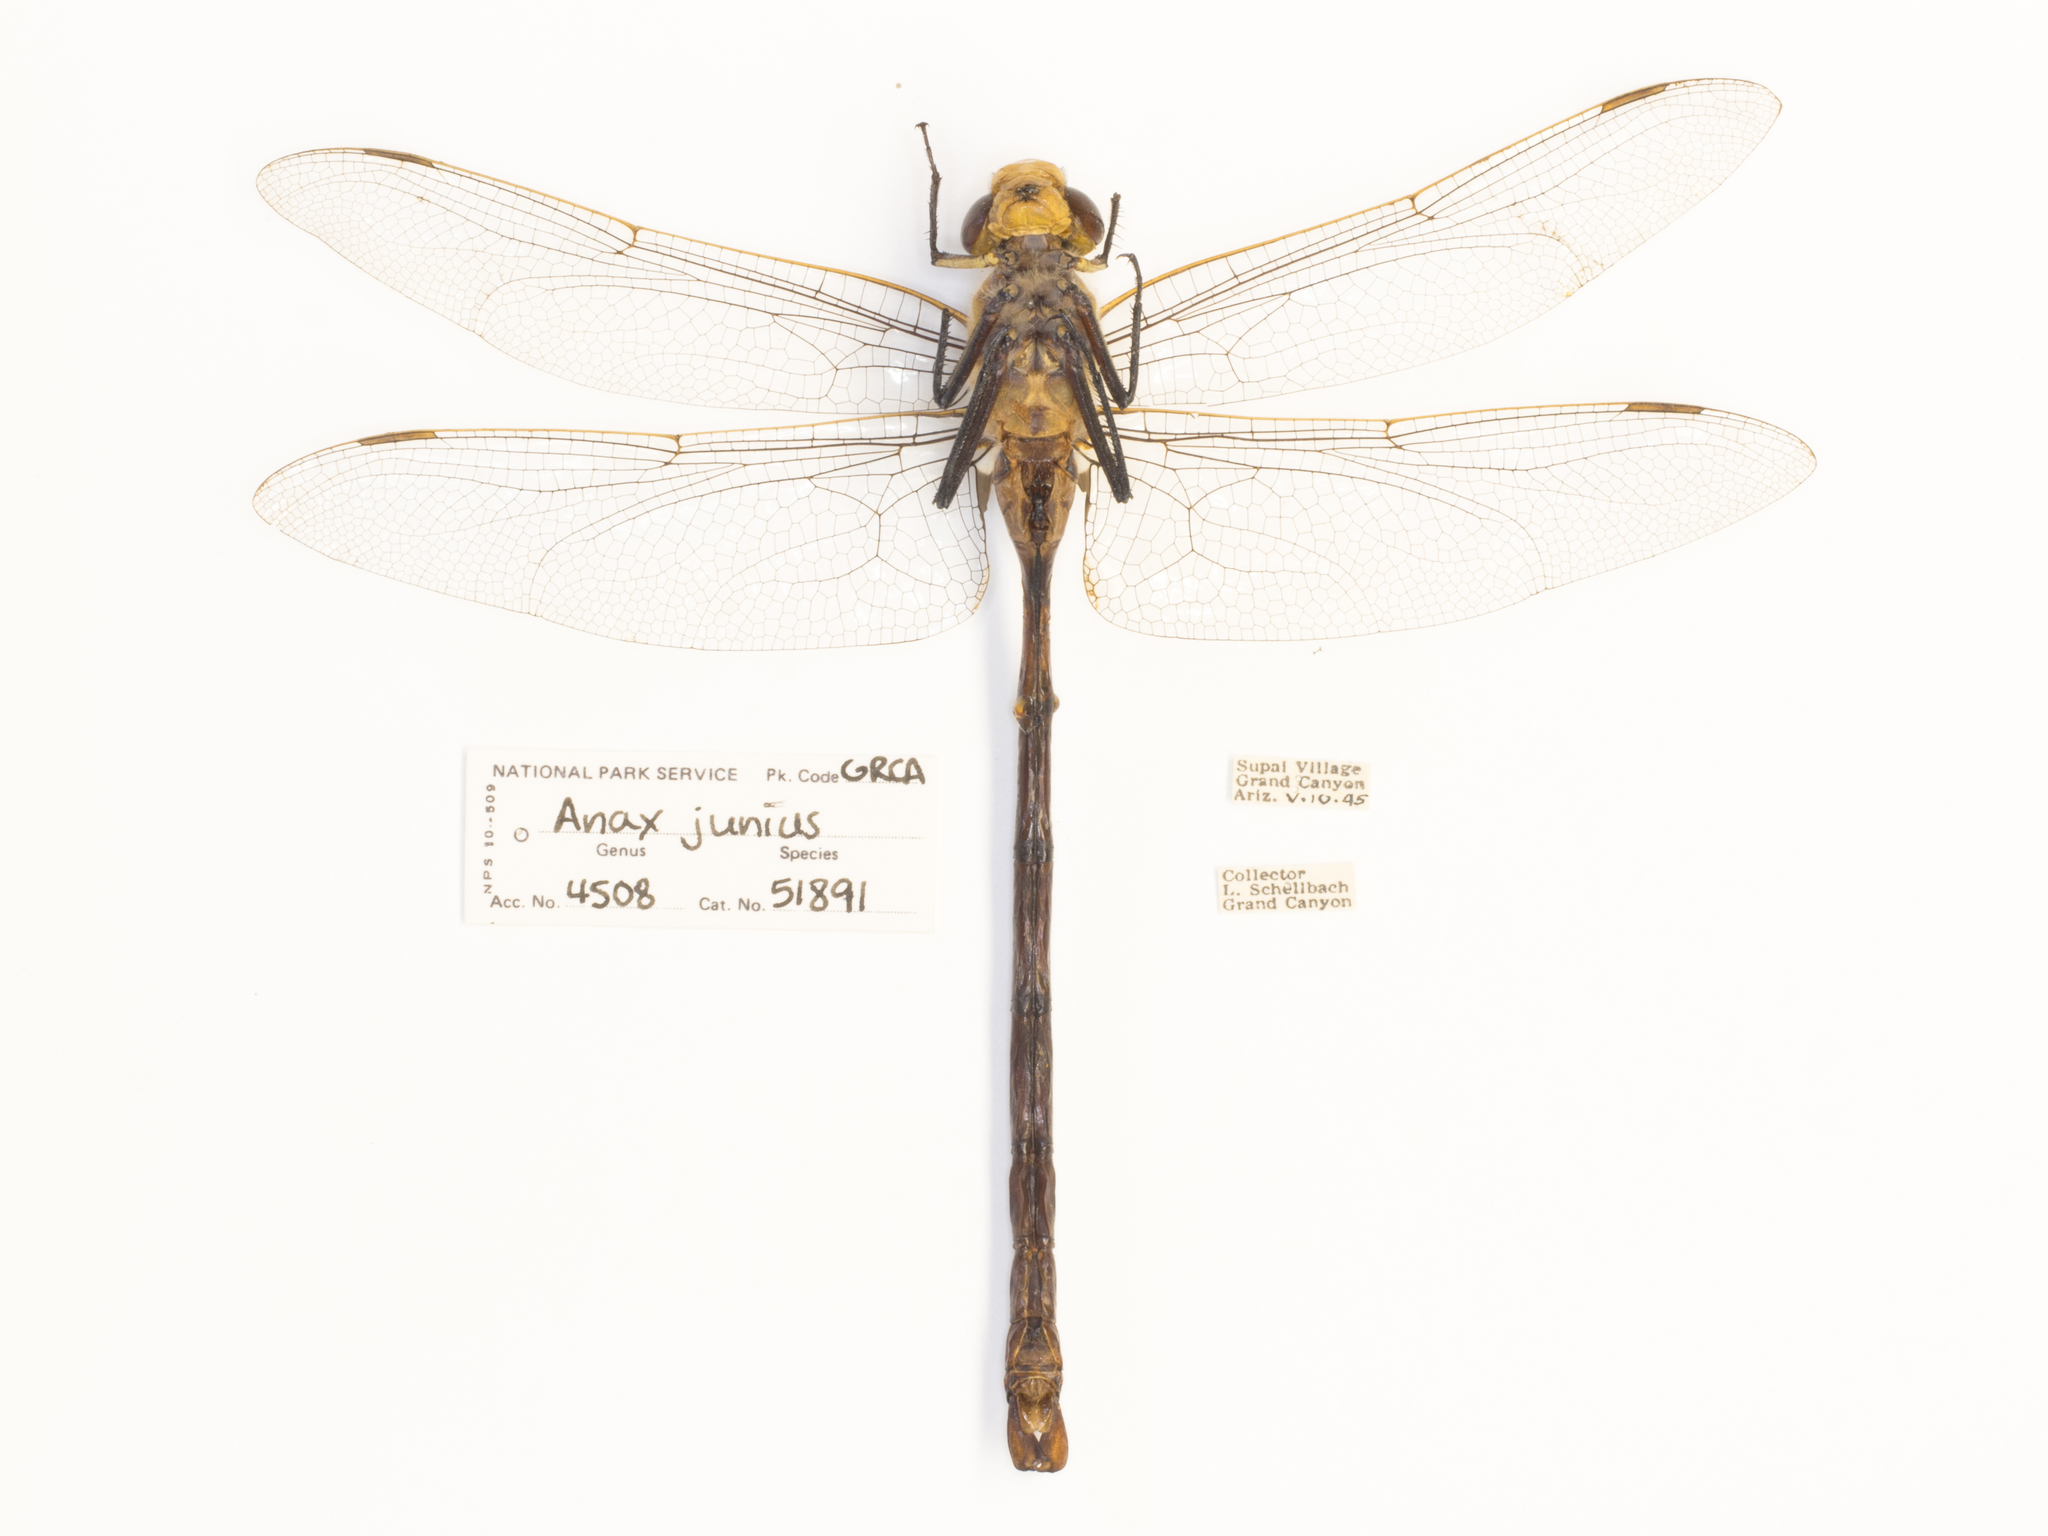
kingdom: Animalia
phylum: Arthropoda
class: Insecta
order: Odonata
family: Aeshnidae
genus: Anax
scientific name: Anax walsinghami
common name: Giant darner
